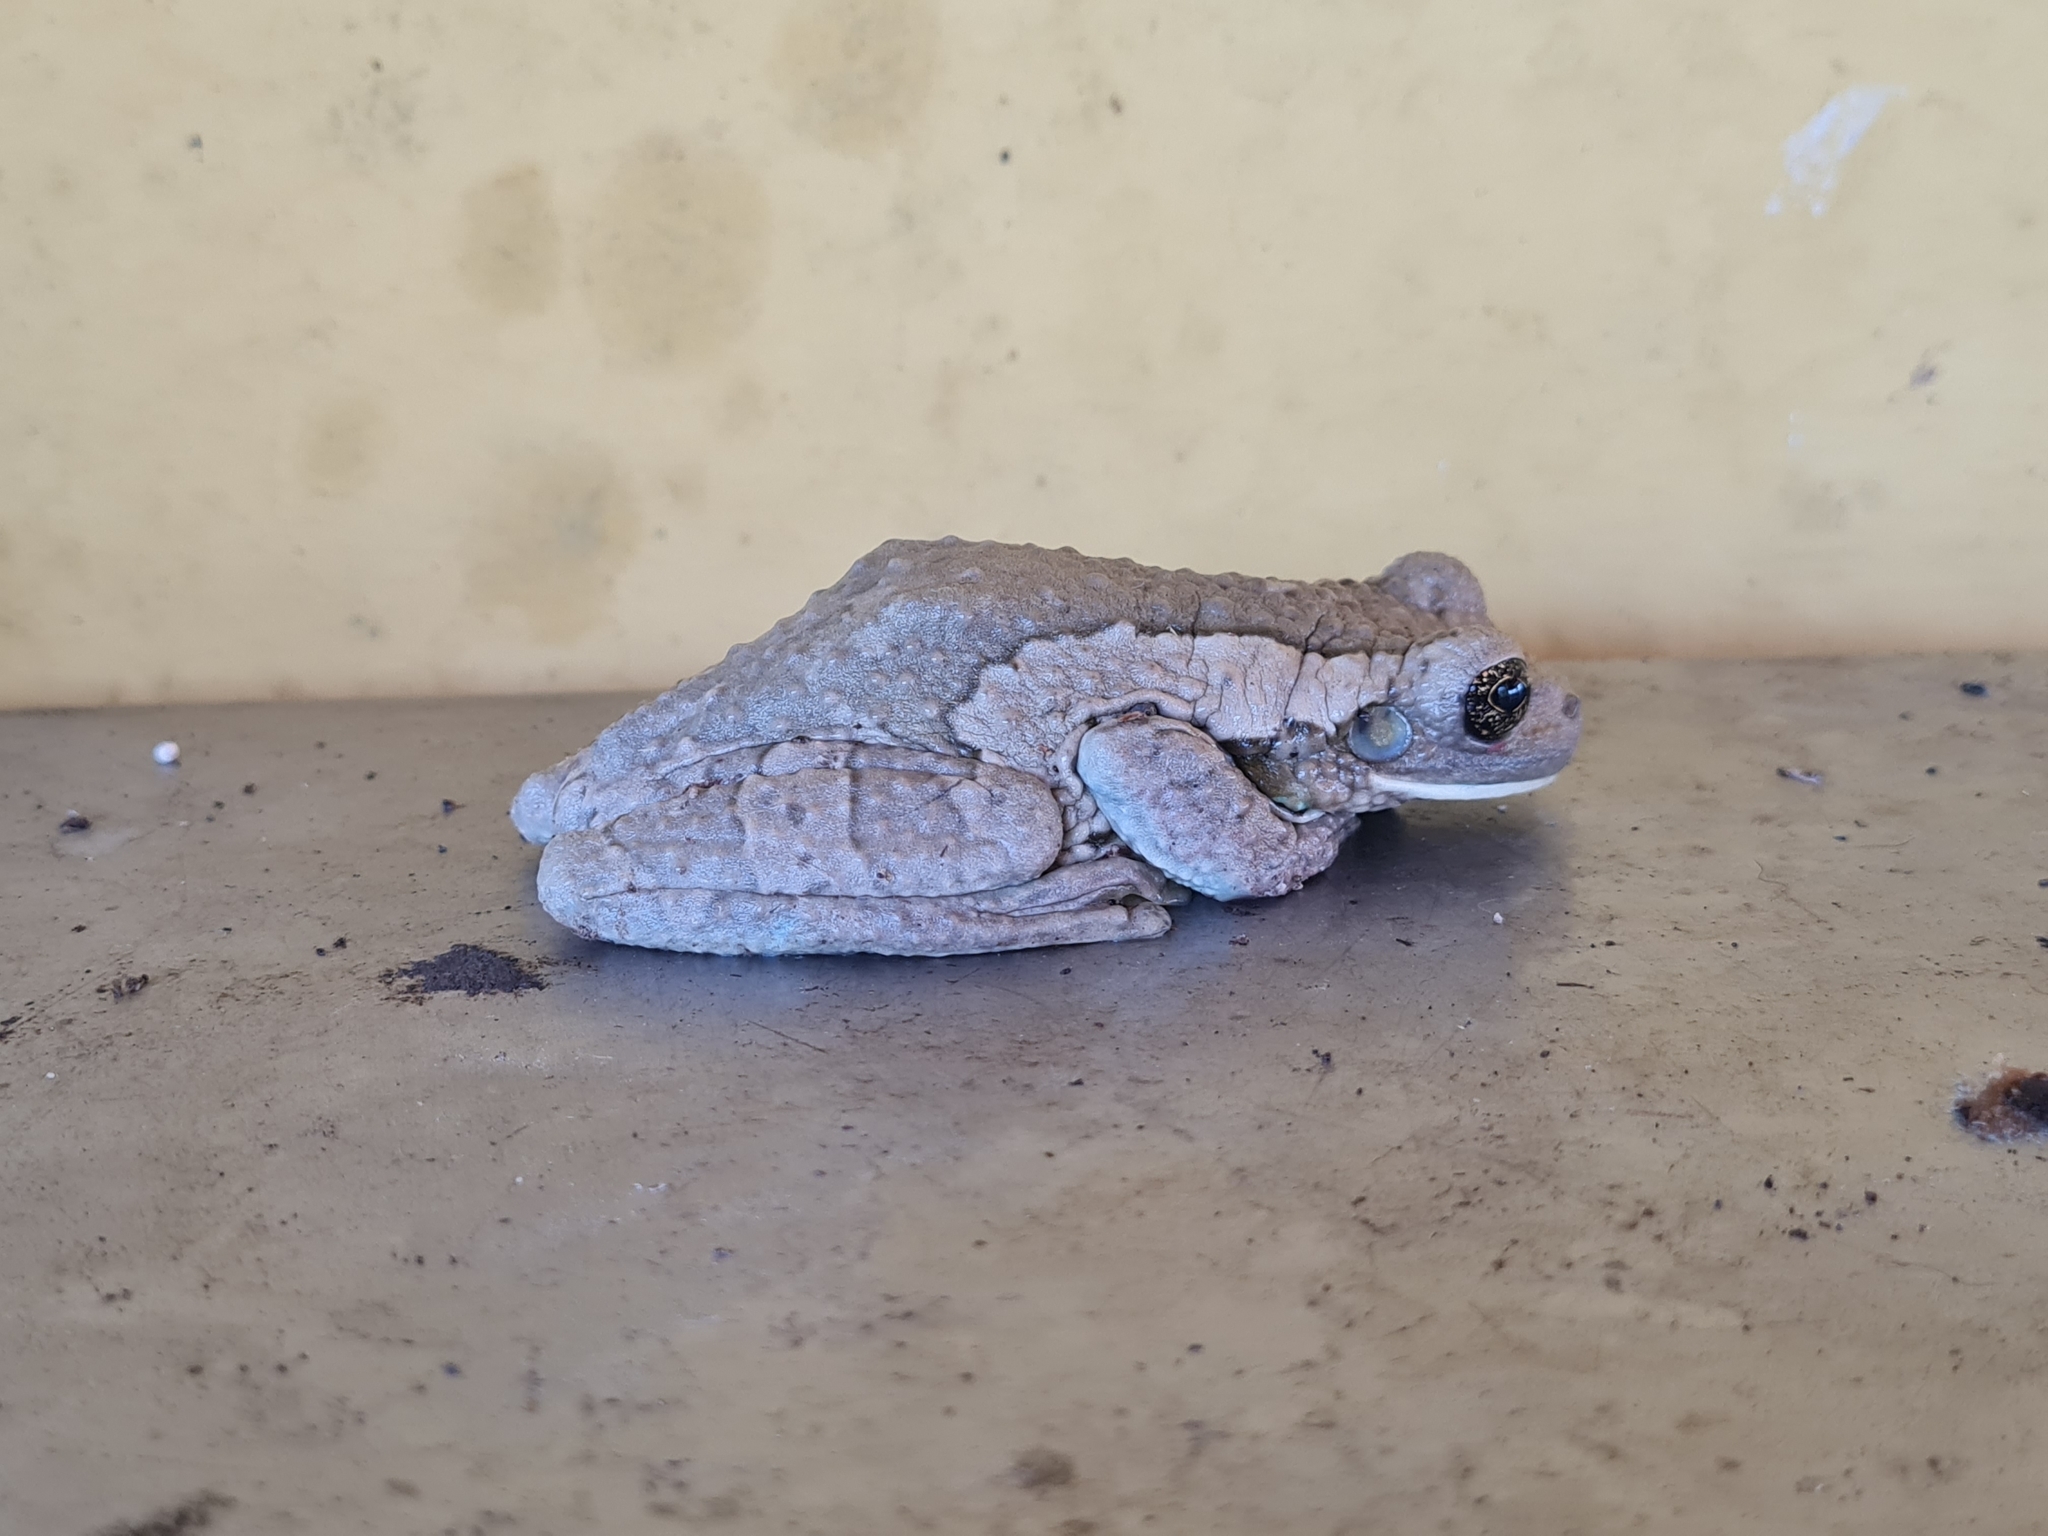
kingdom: Animalia
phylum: Chordata
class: Amphibia
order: Anura
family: Hylidae
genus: Trachycephalus
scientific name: Trachycephalus vermiculatus
